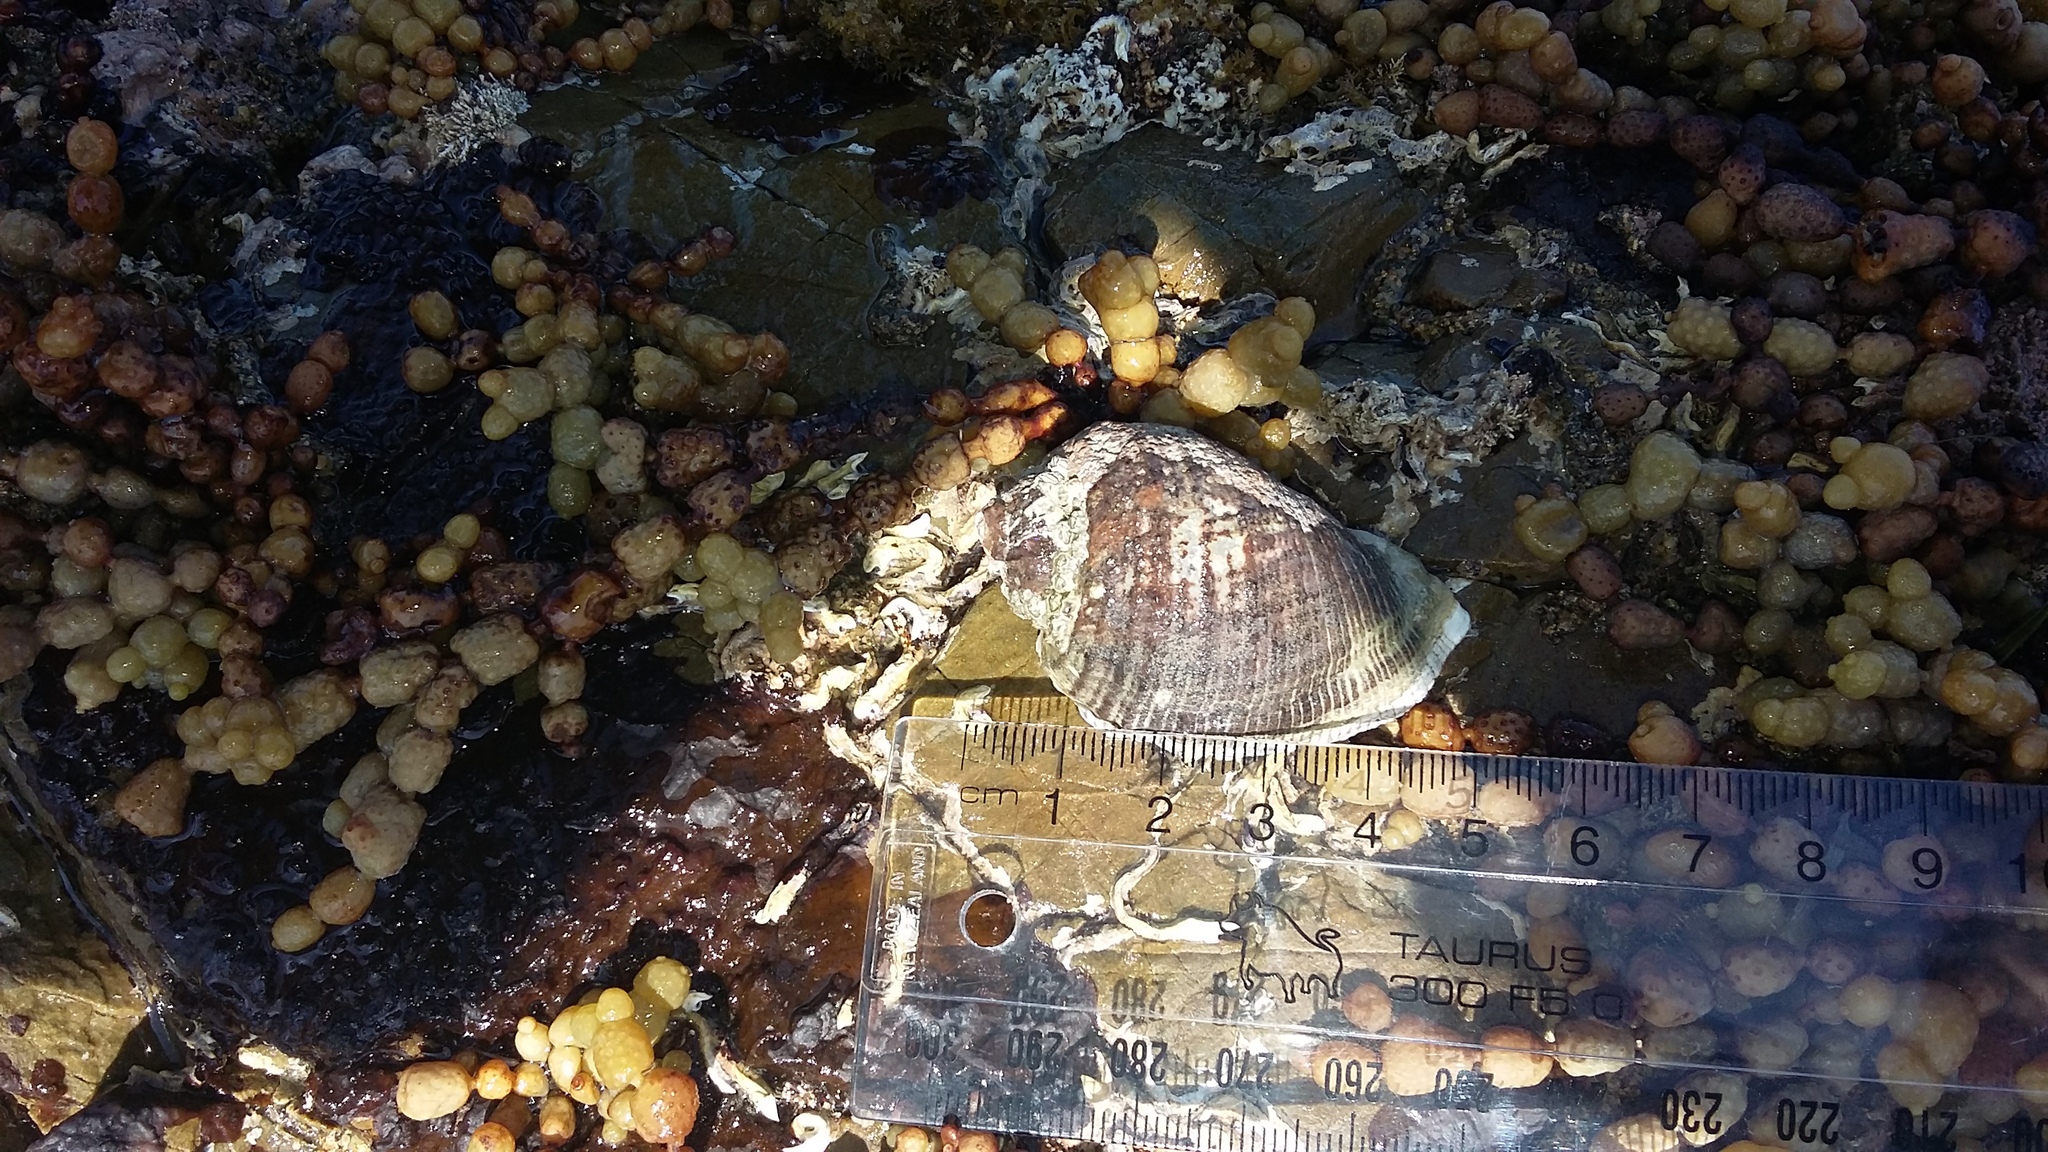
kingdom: Animalia
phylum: Mollusca
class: Gastropoda
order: Neogastropoda
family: Muricidae
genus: Haustrum
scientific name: Haustrum haustorium
